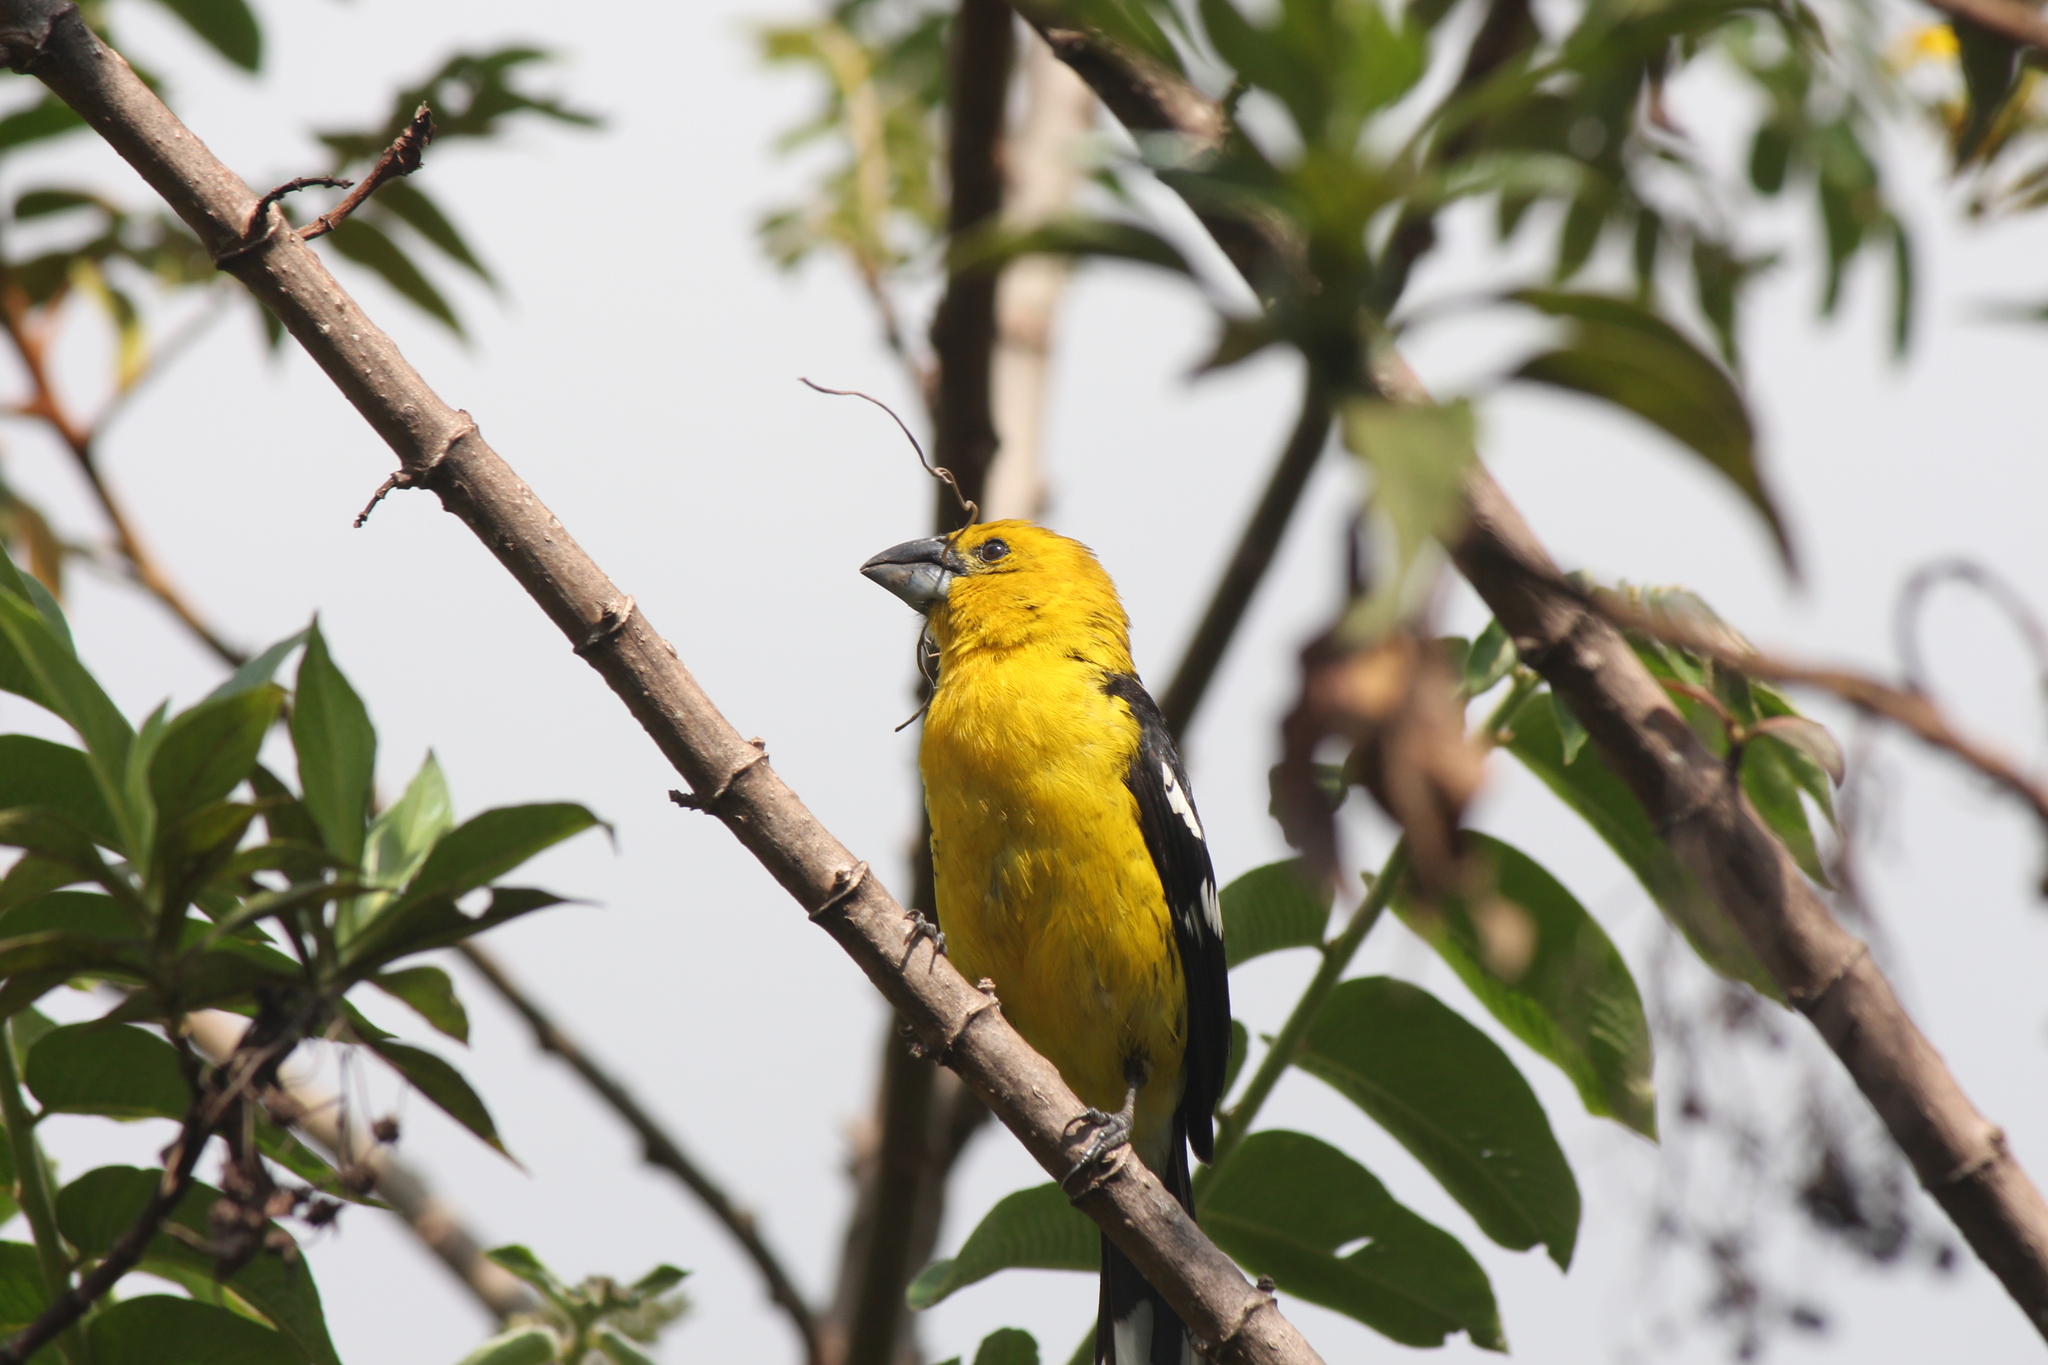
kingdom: Animalia
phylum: Chordata
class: Aves
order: Passeriformes
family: Cardinalidae
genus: Pheucticus
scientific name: Pheucticus chrysogaster
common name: Golden grosbeak
